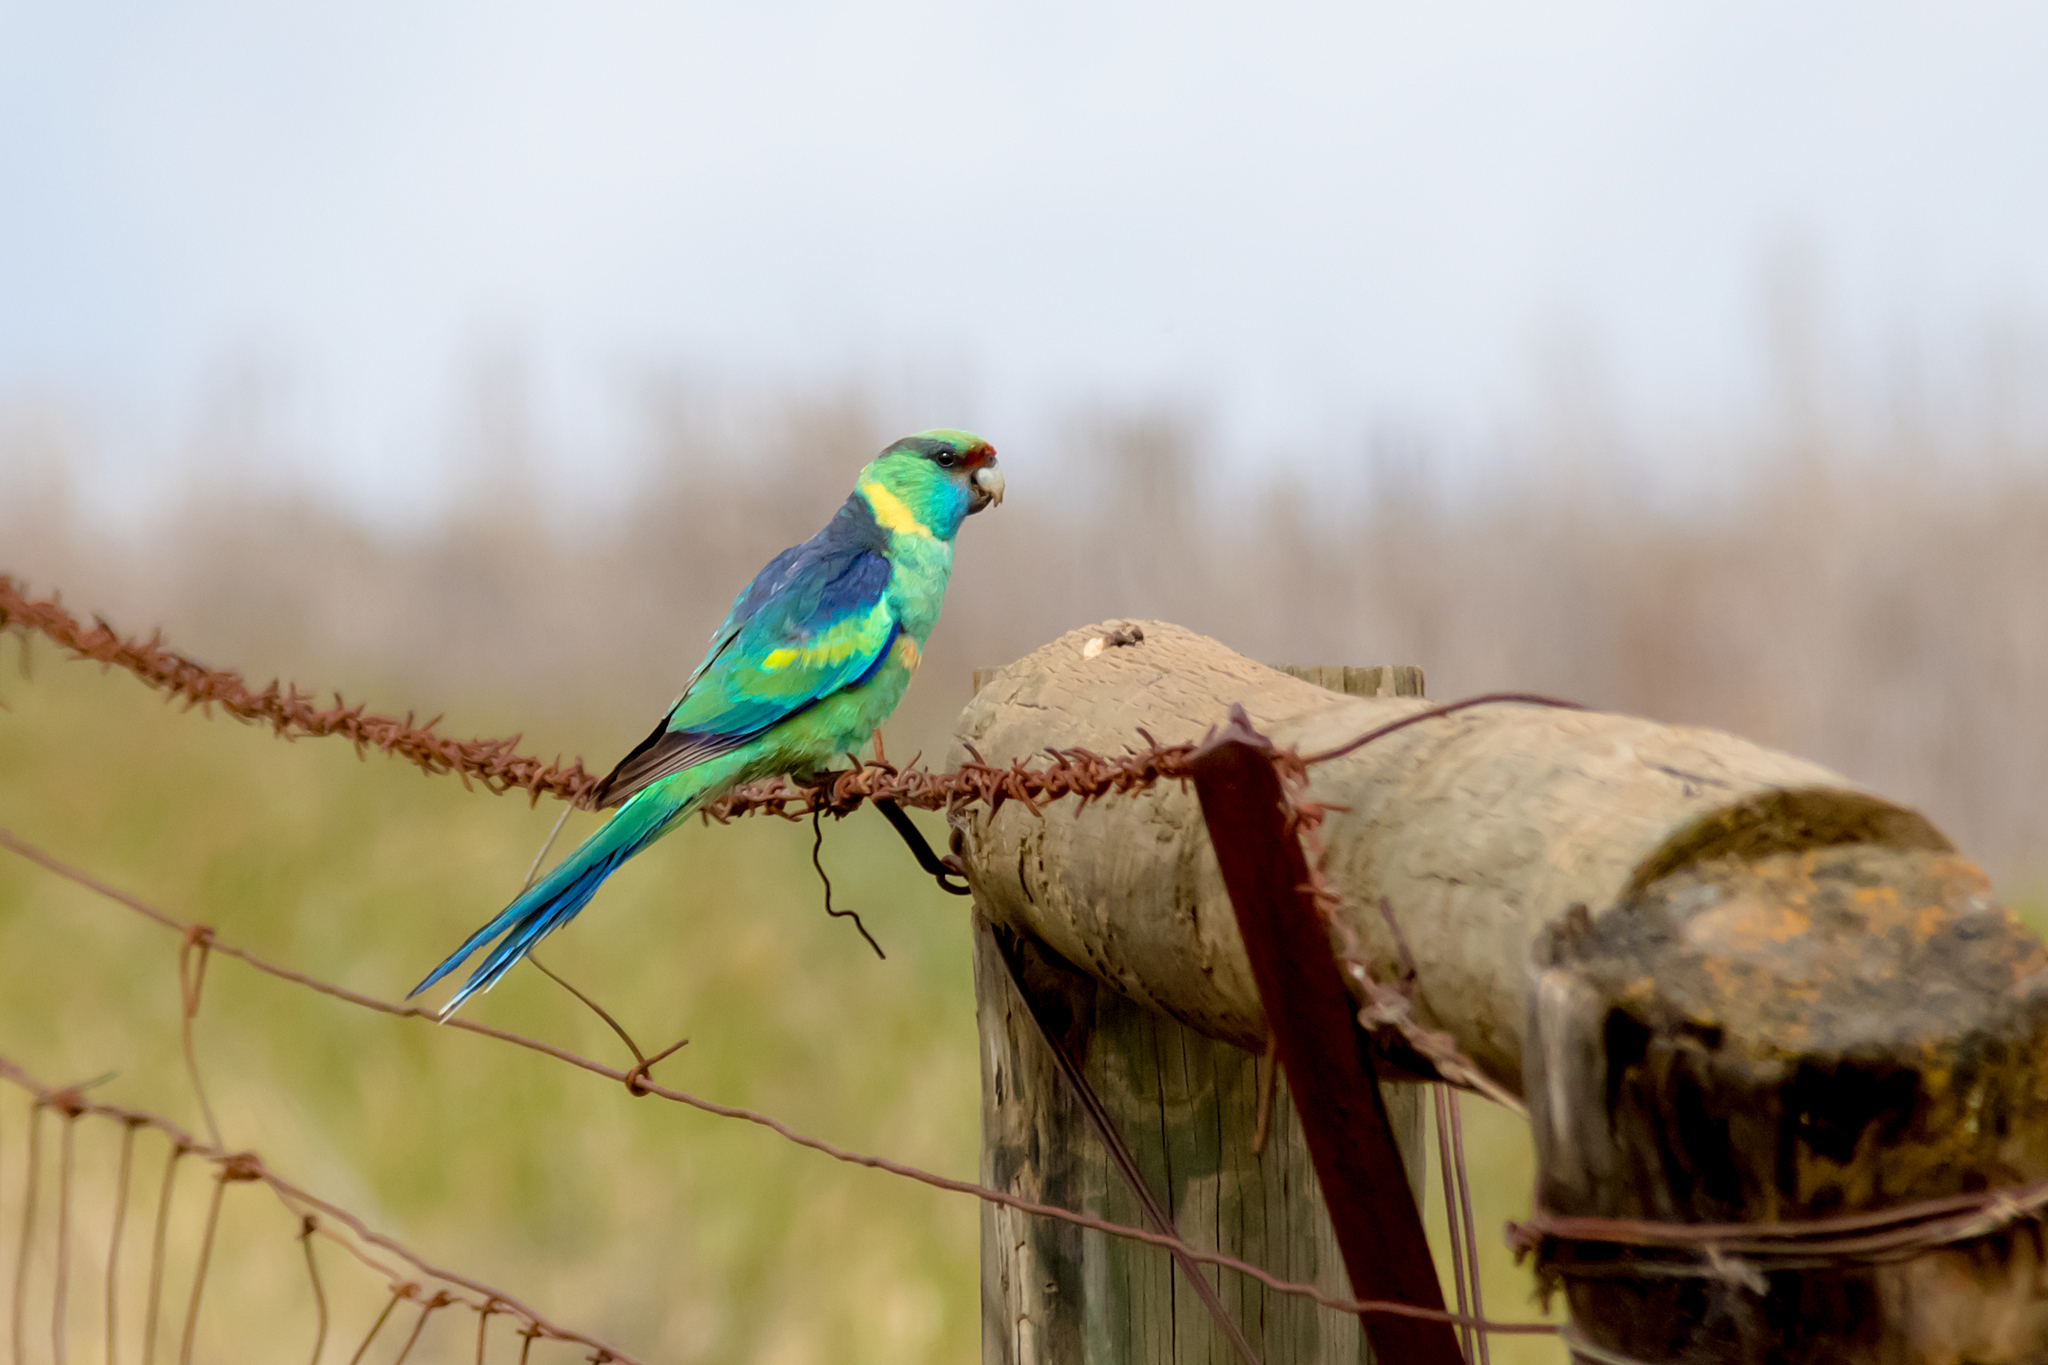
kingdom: Animalia
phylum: Chordata
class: Aves
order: Psittaciformes
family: Psittacidae
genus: Barnardius
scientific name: Barnardius zonarius
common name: Australian ringneck
